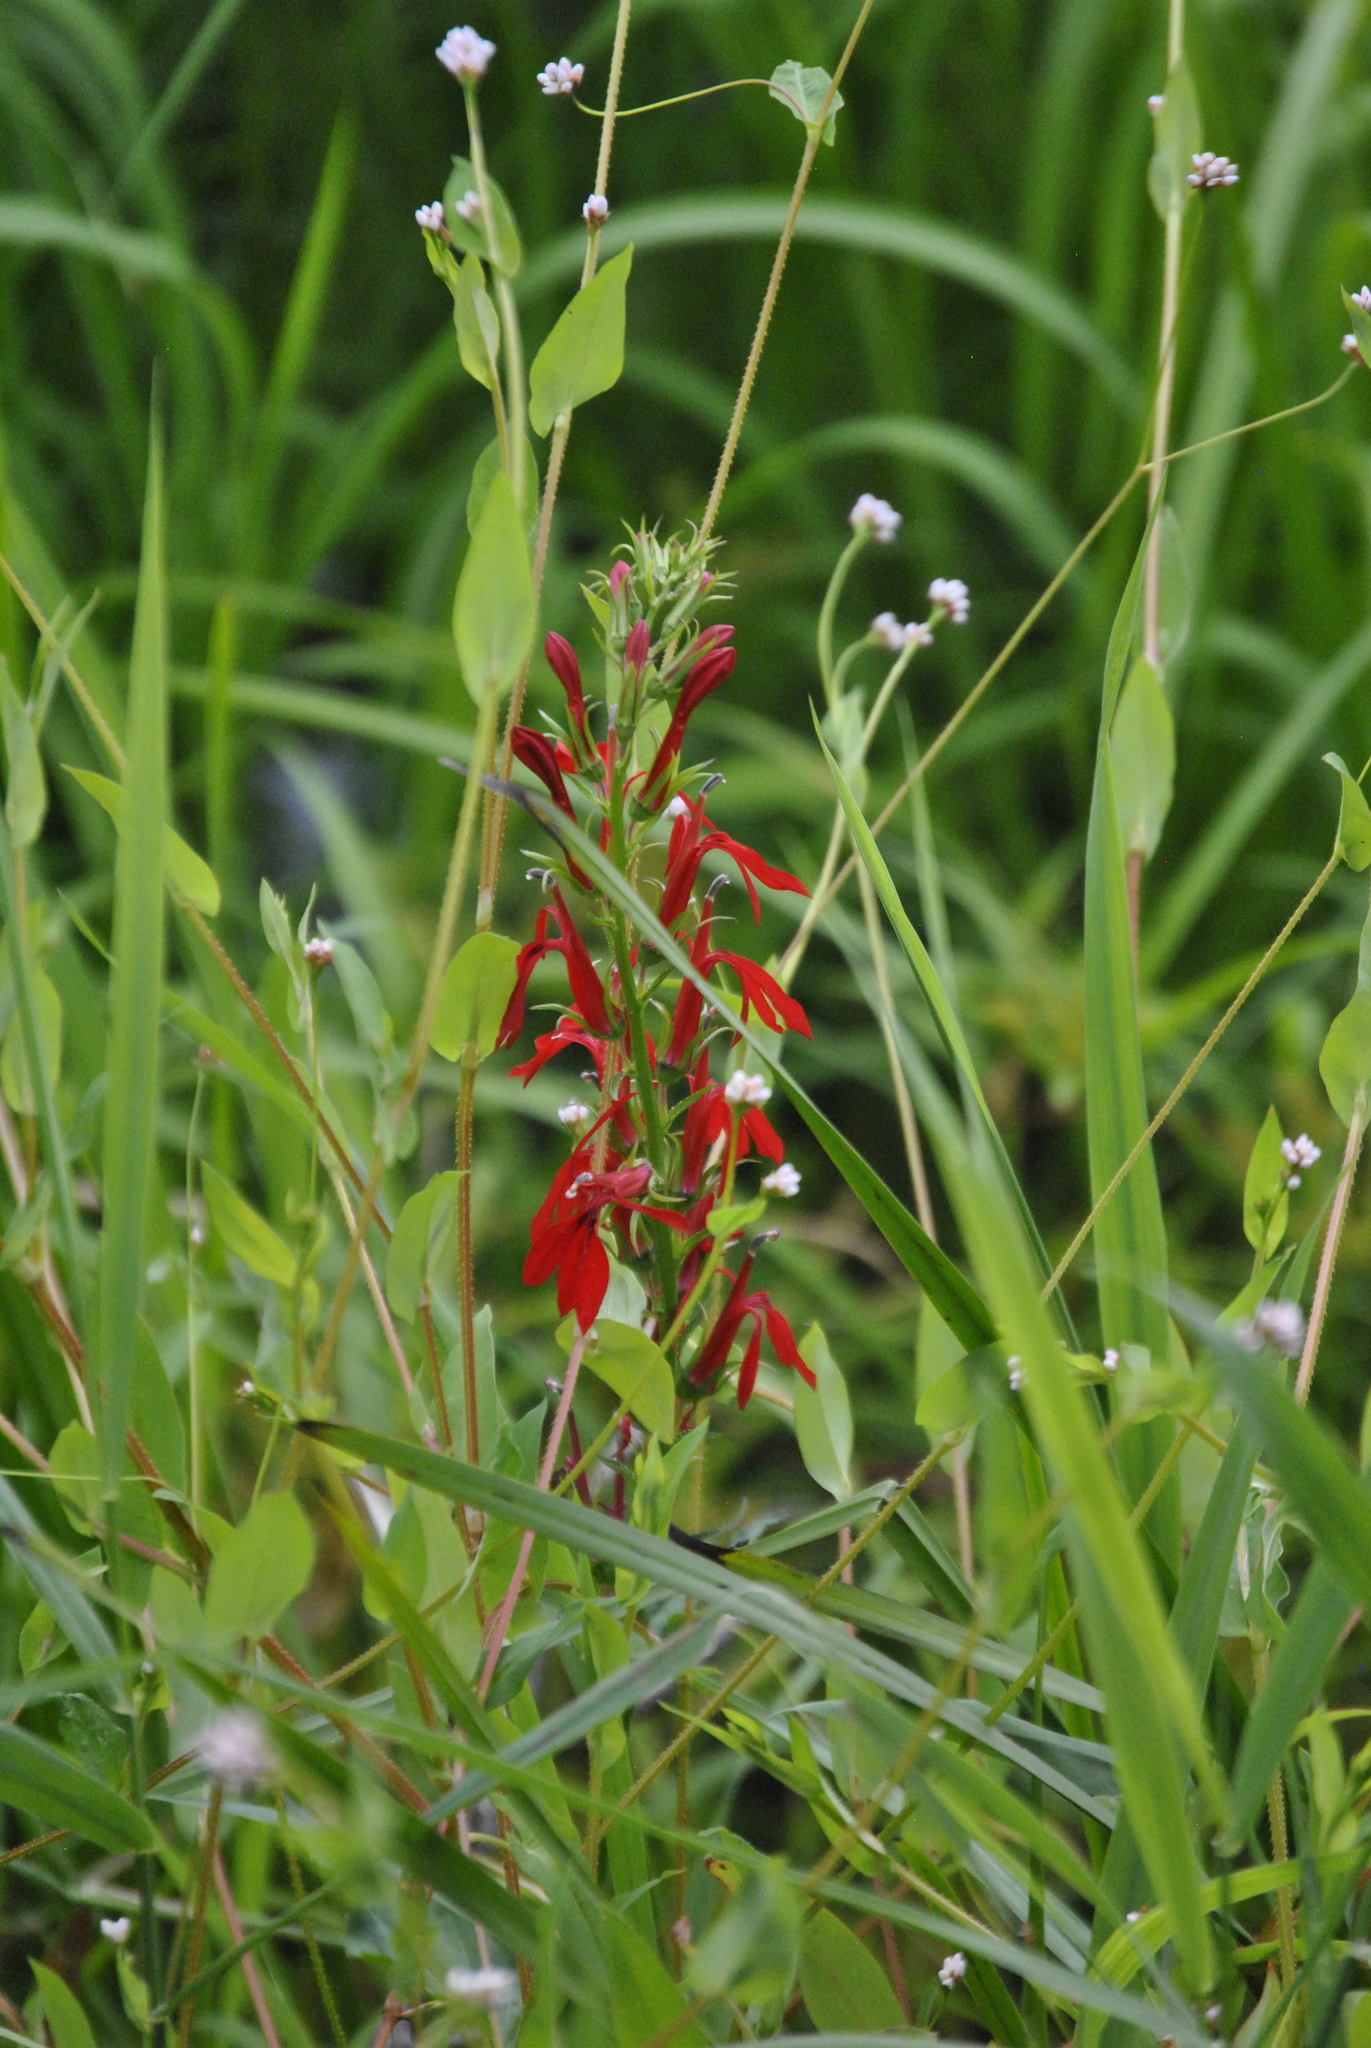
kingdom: Plantae
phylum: Tracheophyta
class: Magnoliopsida
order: Caryophyllales
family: Polygonaceae
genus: Persicaria
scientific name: Persicaria sagittata
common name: American tearthumb
